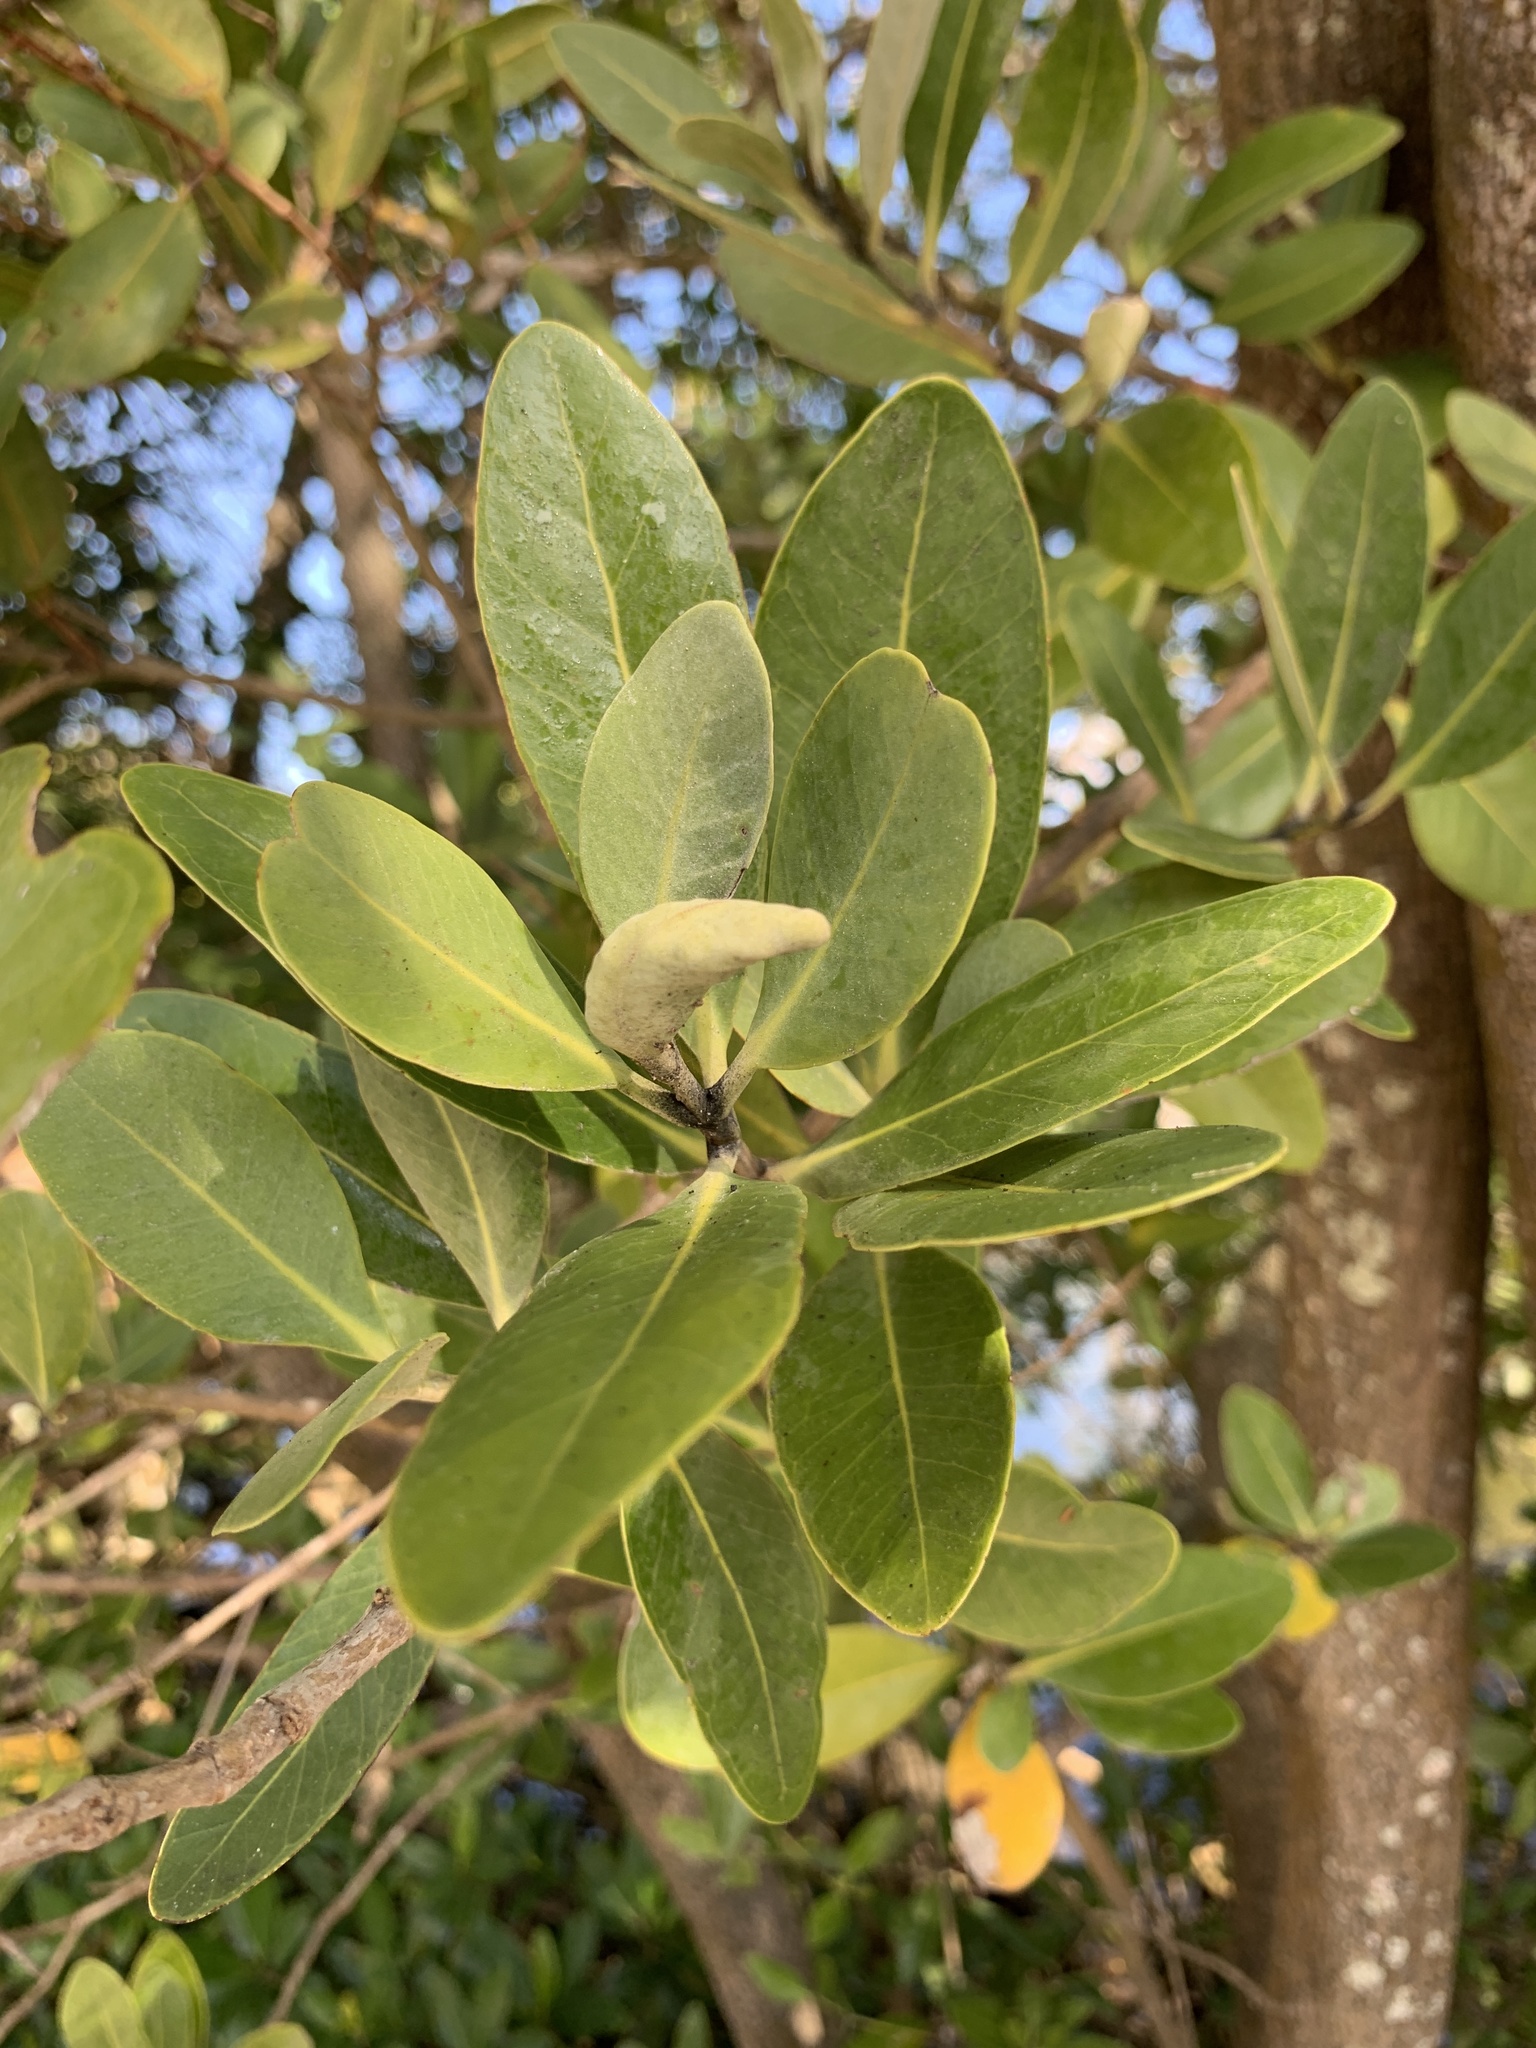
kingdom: Plantae
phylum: Tracheophyta
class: Magnoliopsida
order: Lamiales
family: Acanthaceae
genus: Avicennia
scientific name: Avicennia germinans
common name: Black mangrove
